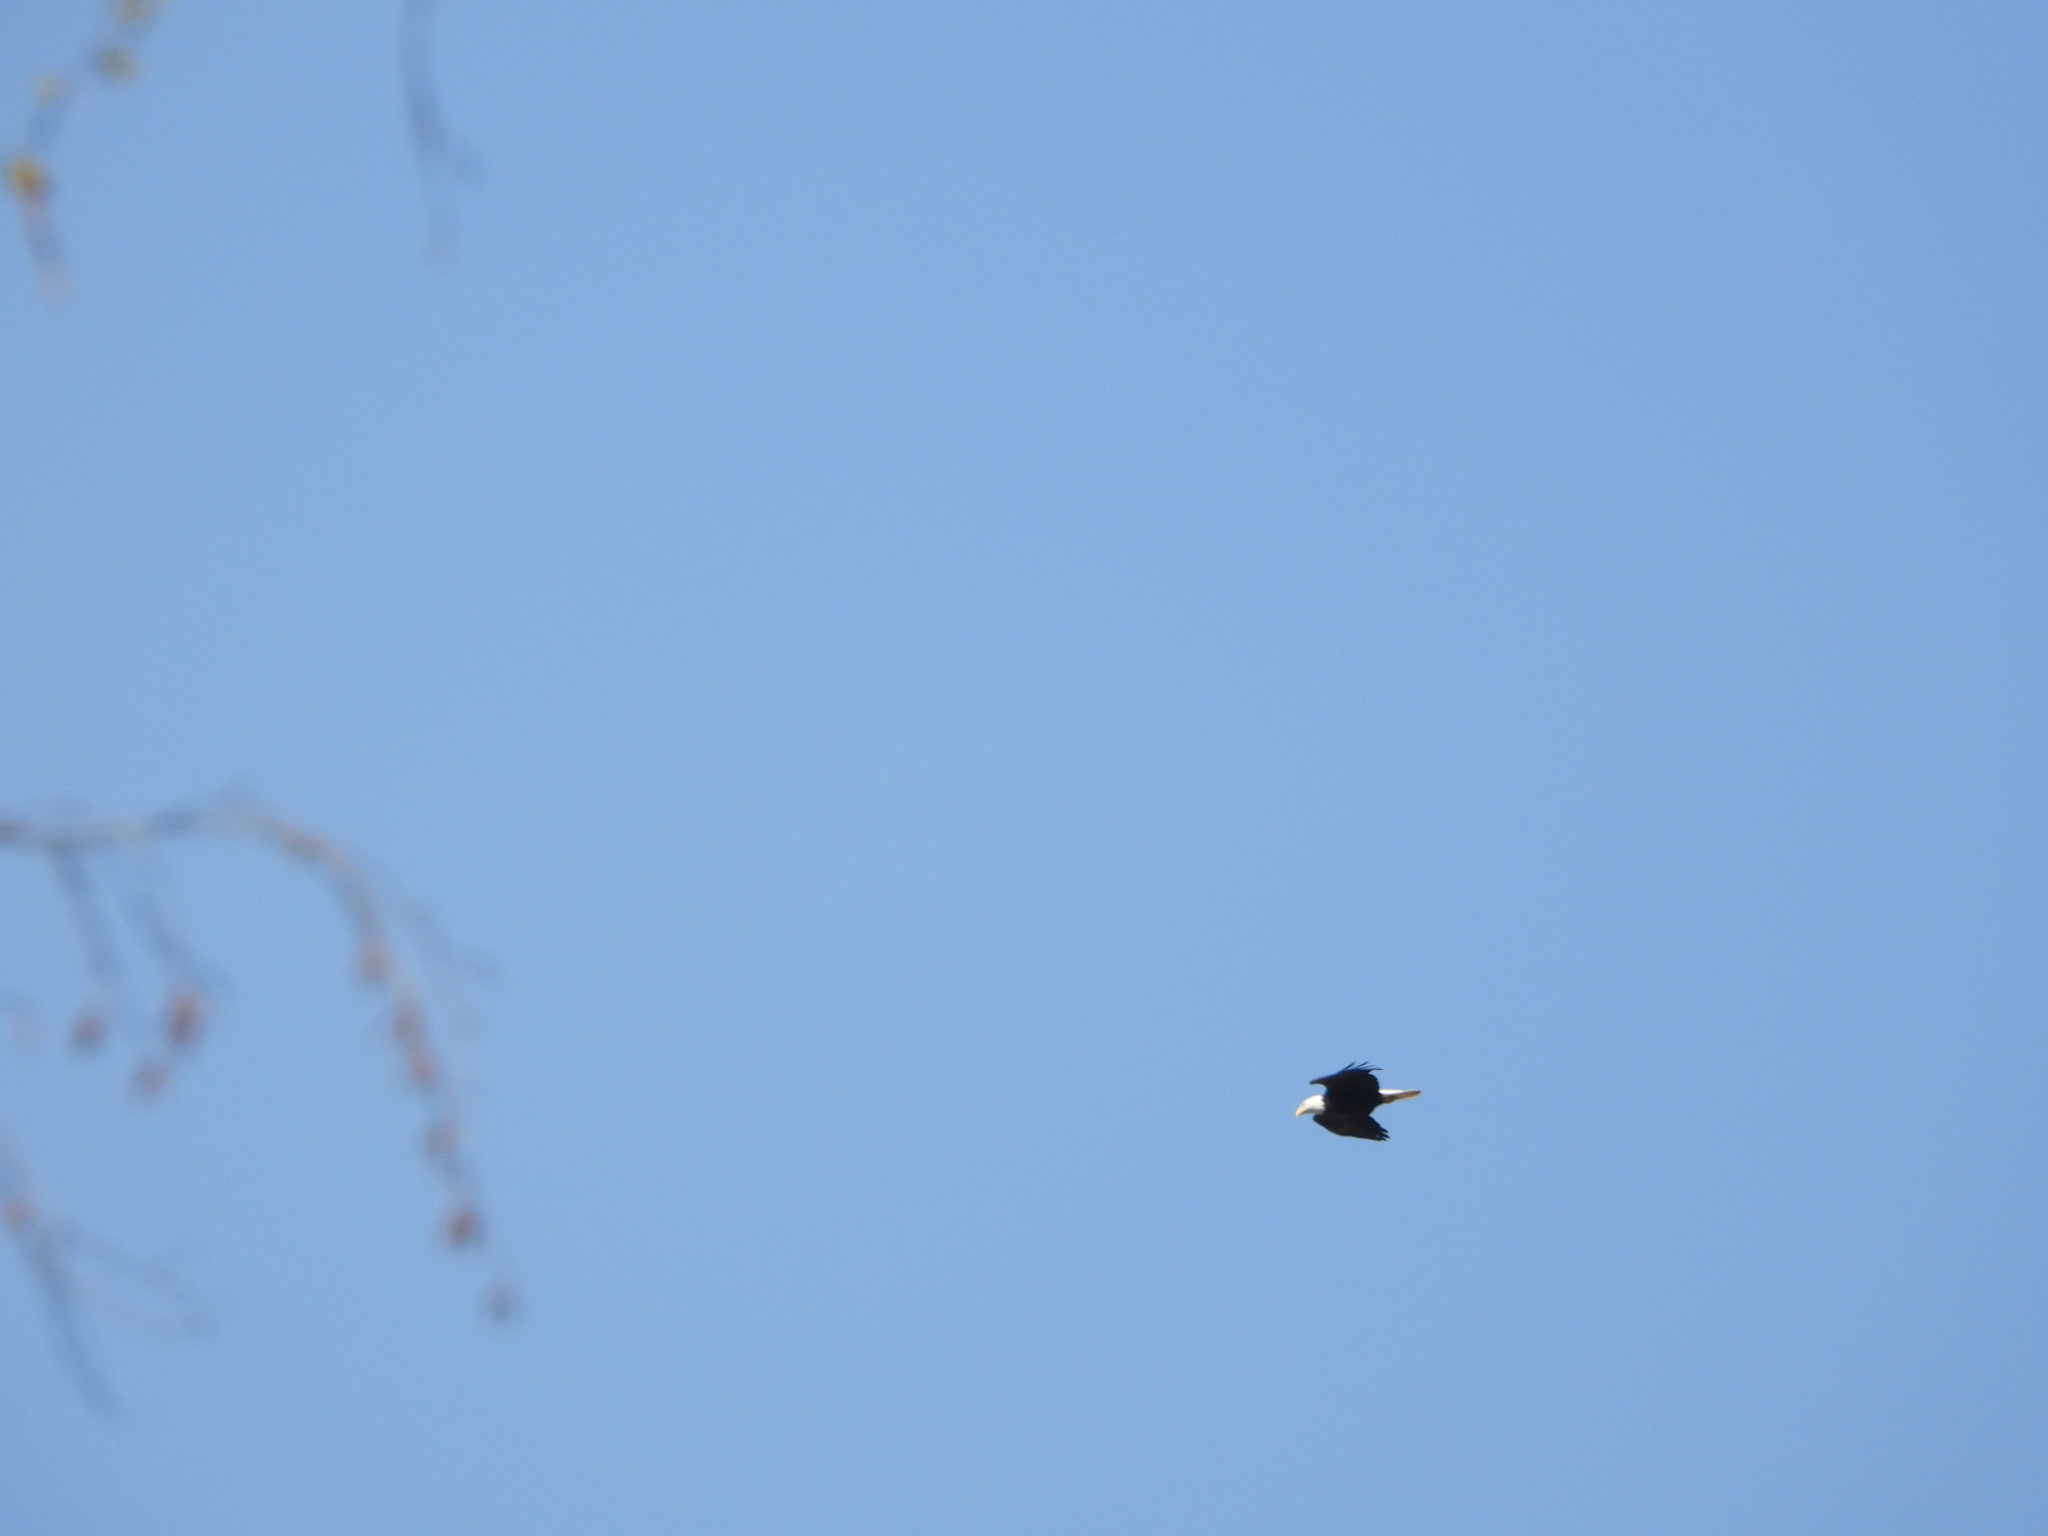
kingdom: Animalia
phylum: Chordata
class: Aves
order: Accipitriformes
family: Accipitridae
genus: Haliaeetus
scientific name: Haliaeetus leucocephalus
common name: Bald eagle
